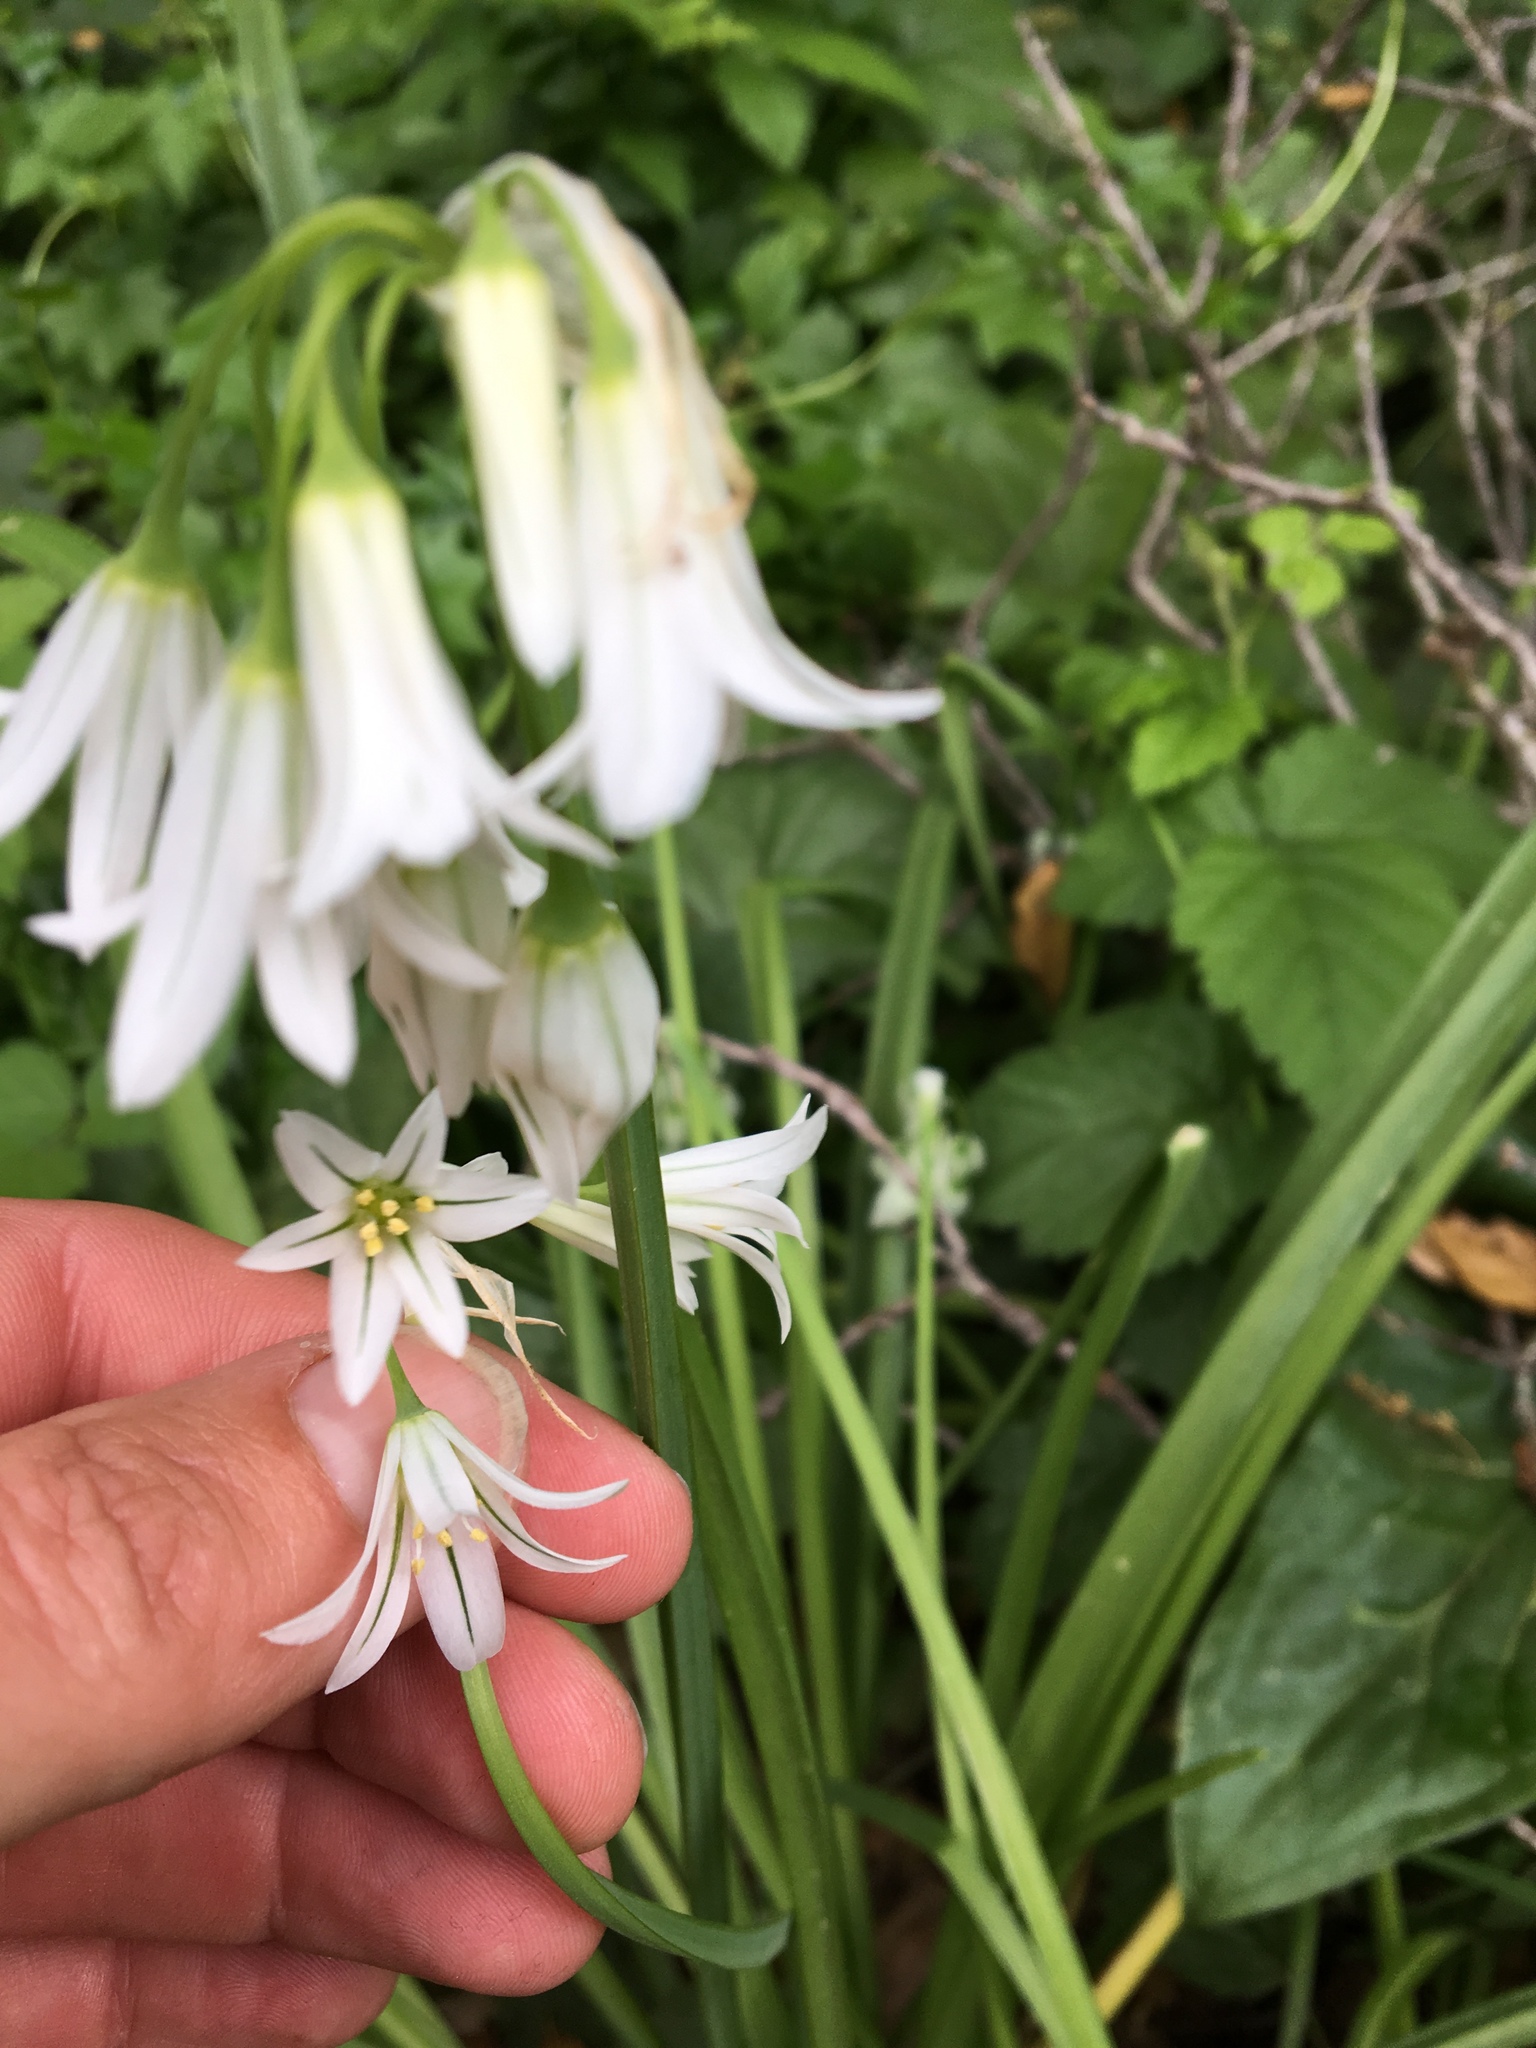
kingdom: Plantae
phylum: Tracheophyta
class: Liliopsida
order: Asparagales
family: Amaryllidaceae
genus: Allium
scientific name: Allium triquetrum
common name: Three-cornered garlic
